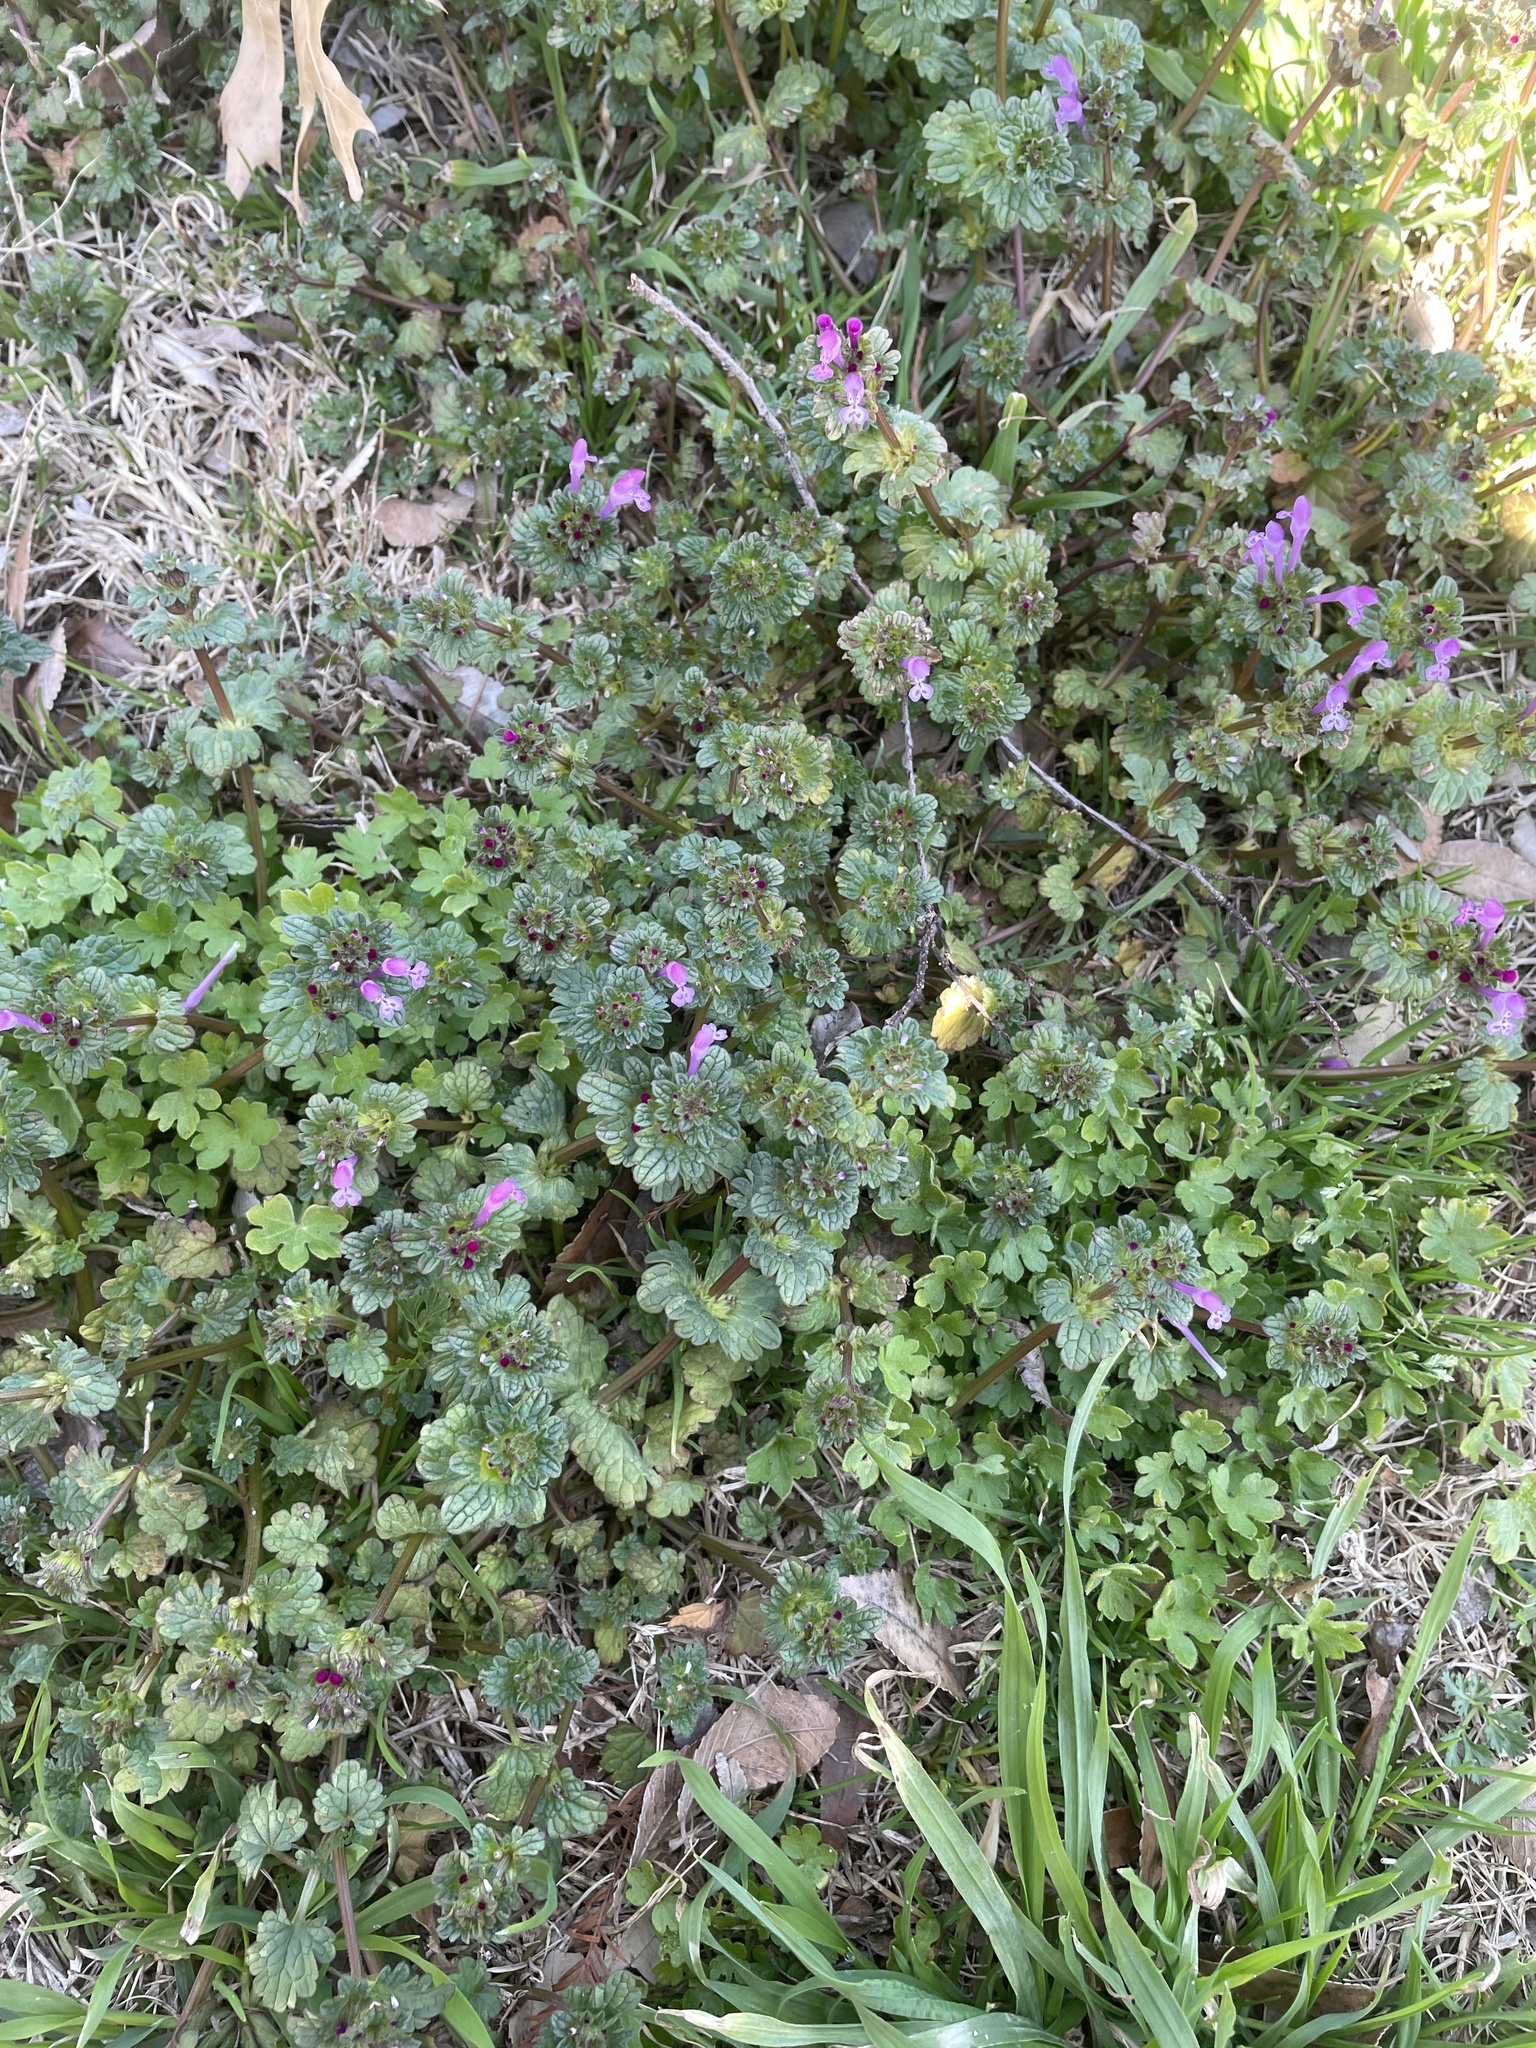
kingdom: Plantae
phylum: Tracheophyta
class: Magnoliopsida
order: Lamiales
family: Lamiaceae
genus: Lamium
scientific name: Lamium amplexicaule
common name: Henbit dead-nettle
